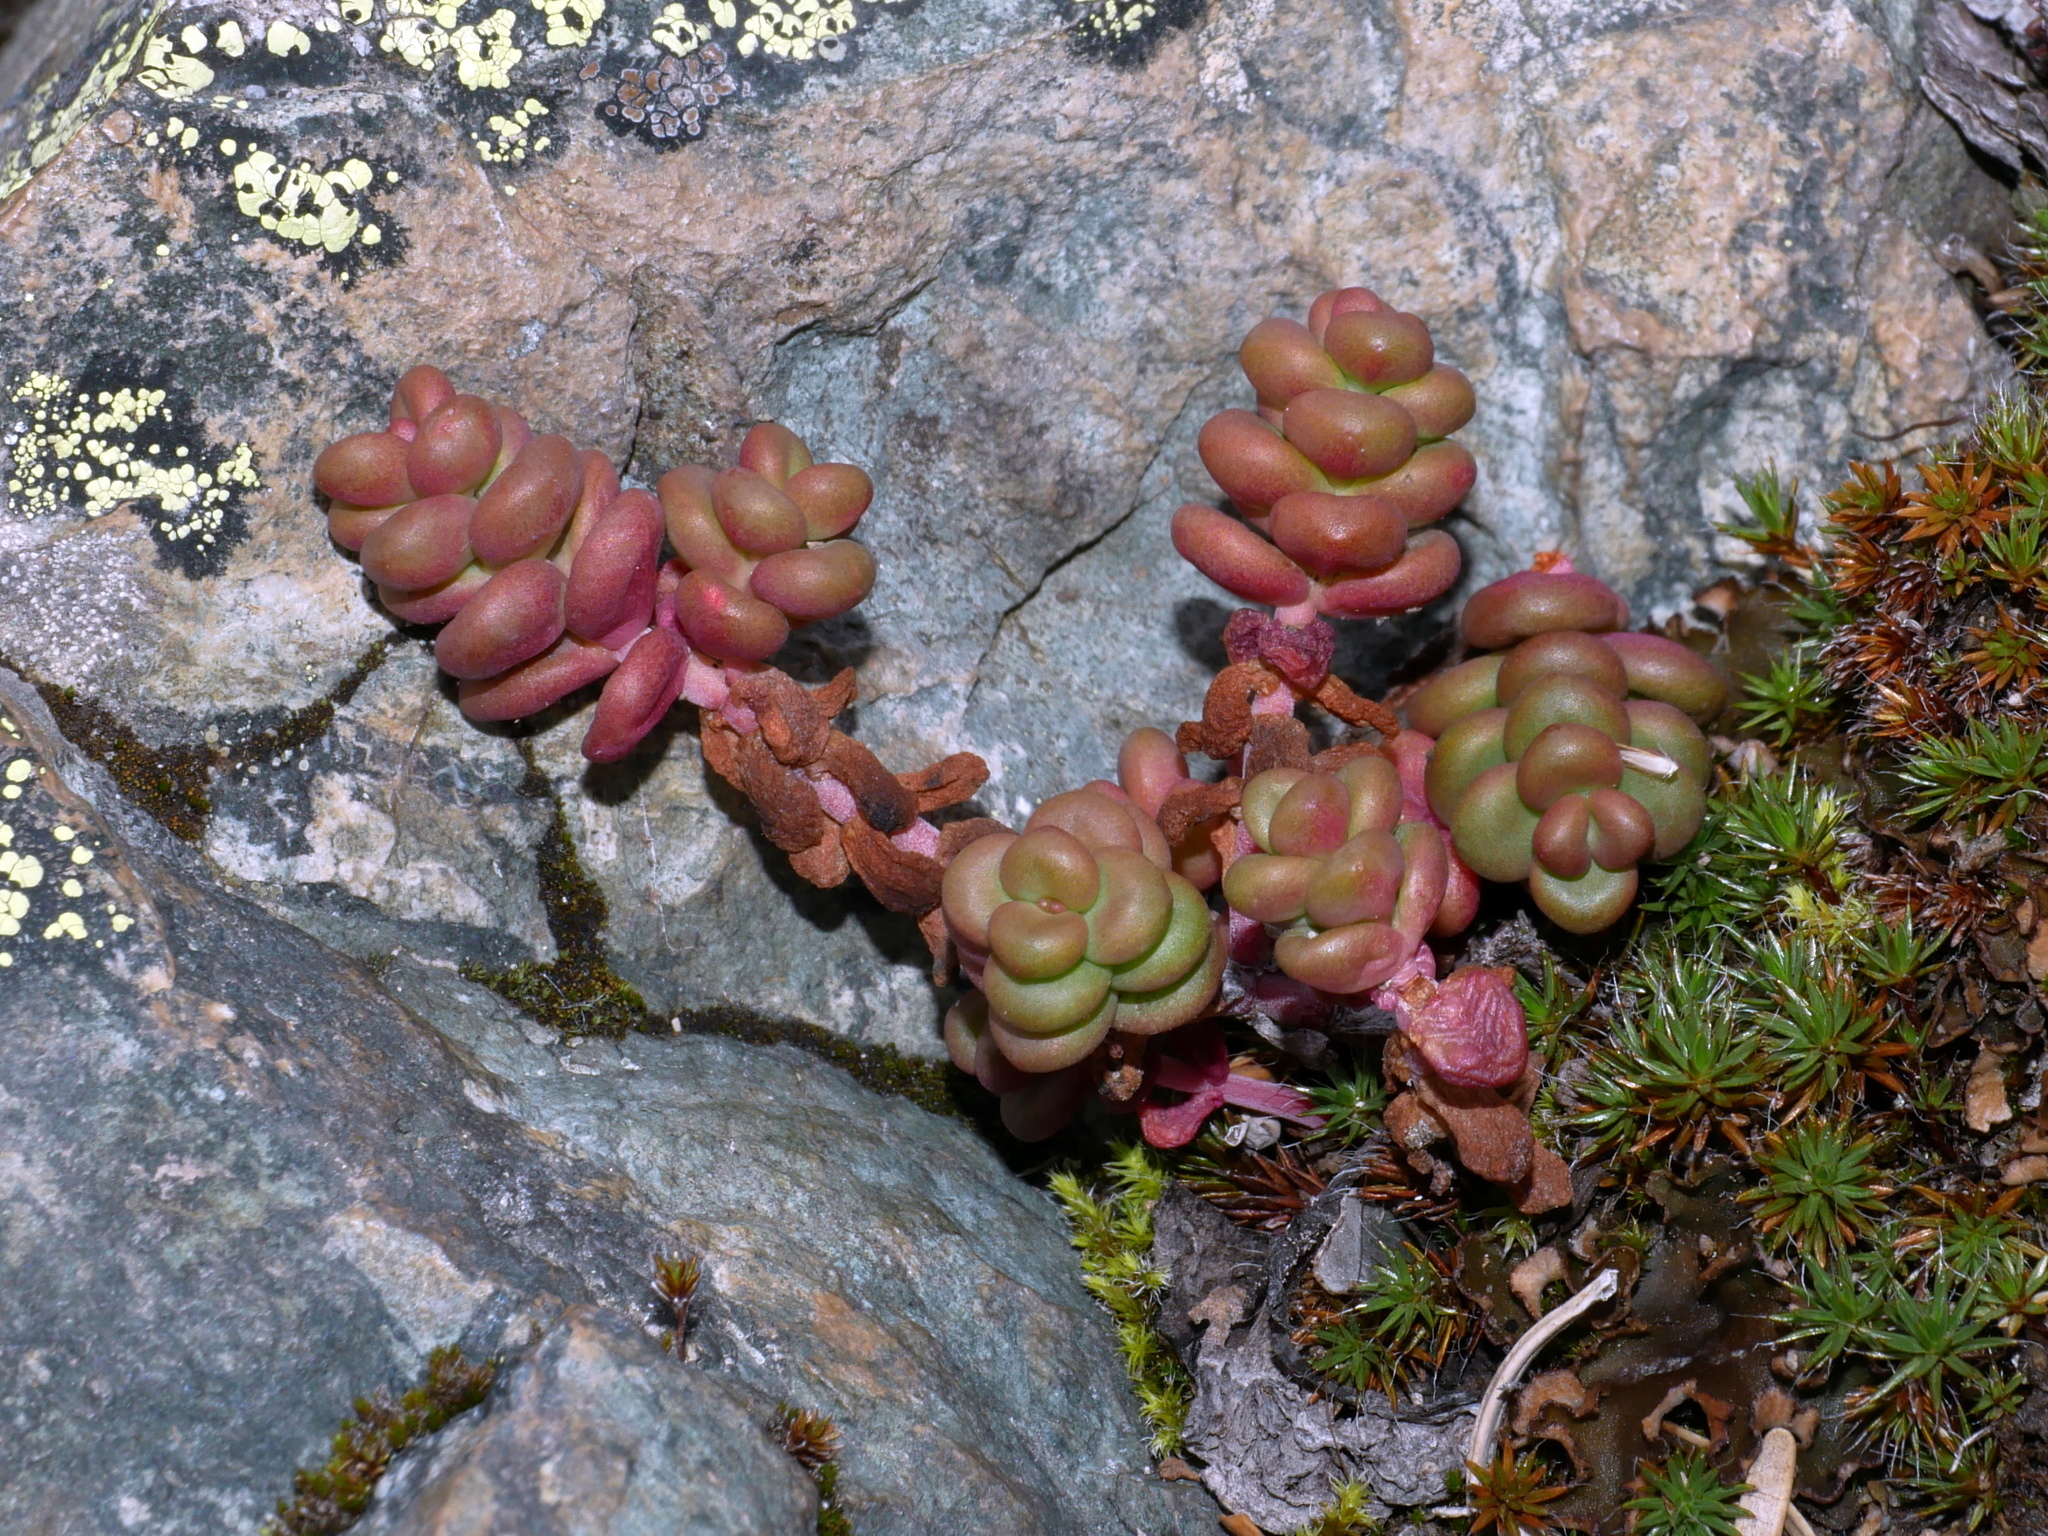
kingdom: Plantae
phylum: Tracheophyta
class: Magnoliopsida
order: Saxifragales
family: Crassulaceae
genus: Sedum
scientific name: Sedum divergens
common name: Cascade stonecrop
